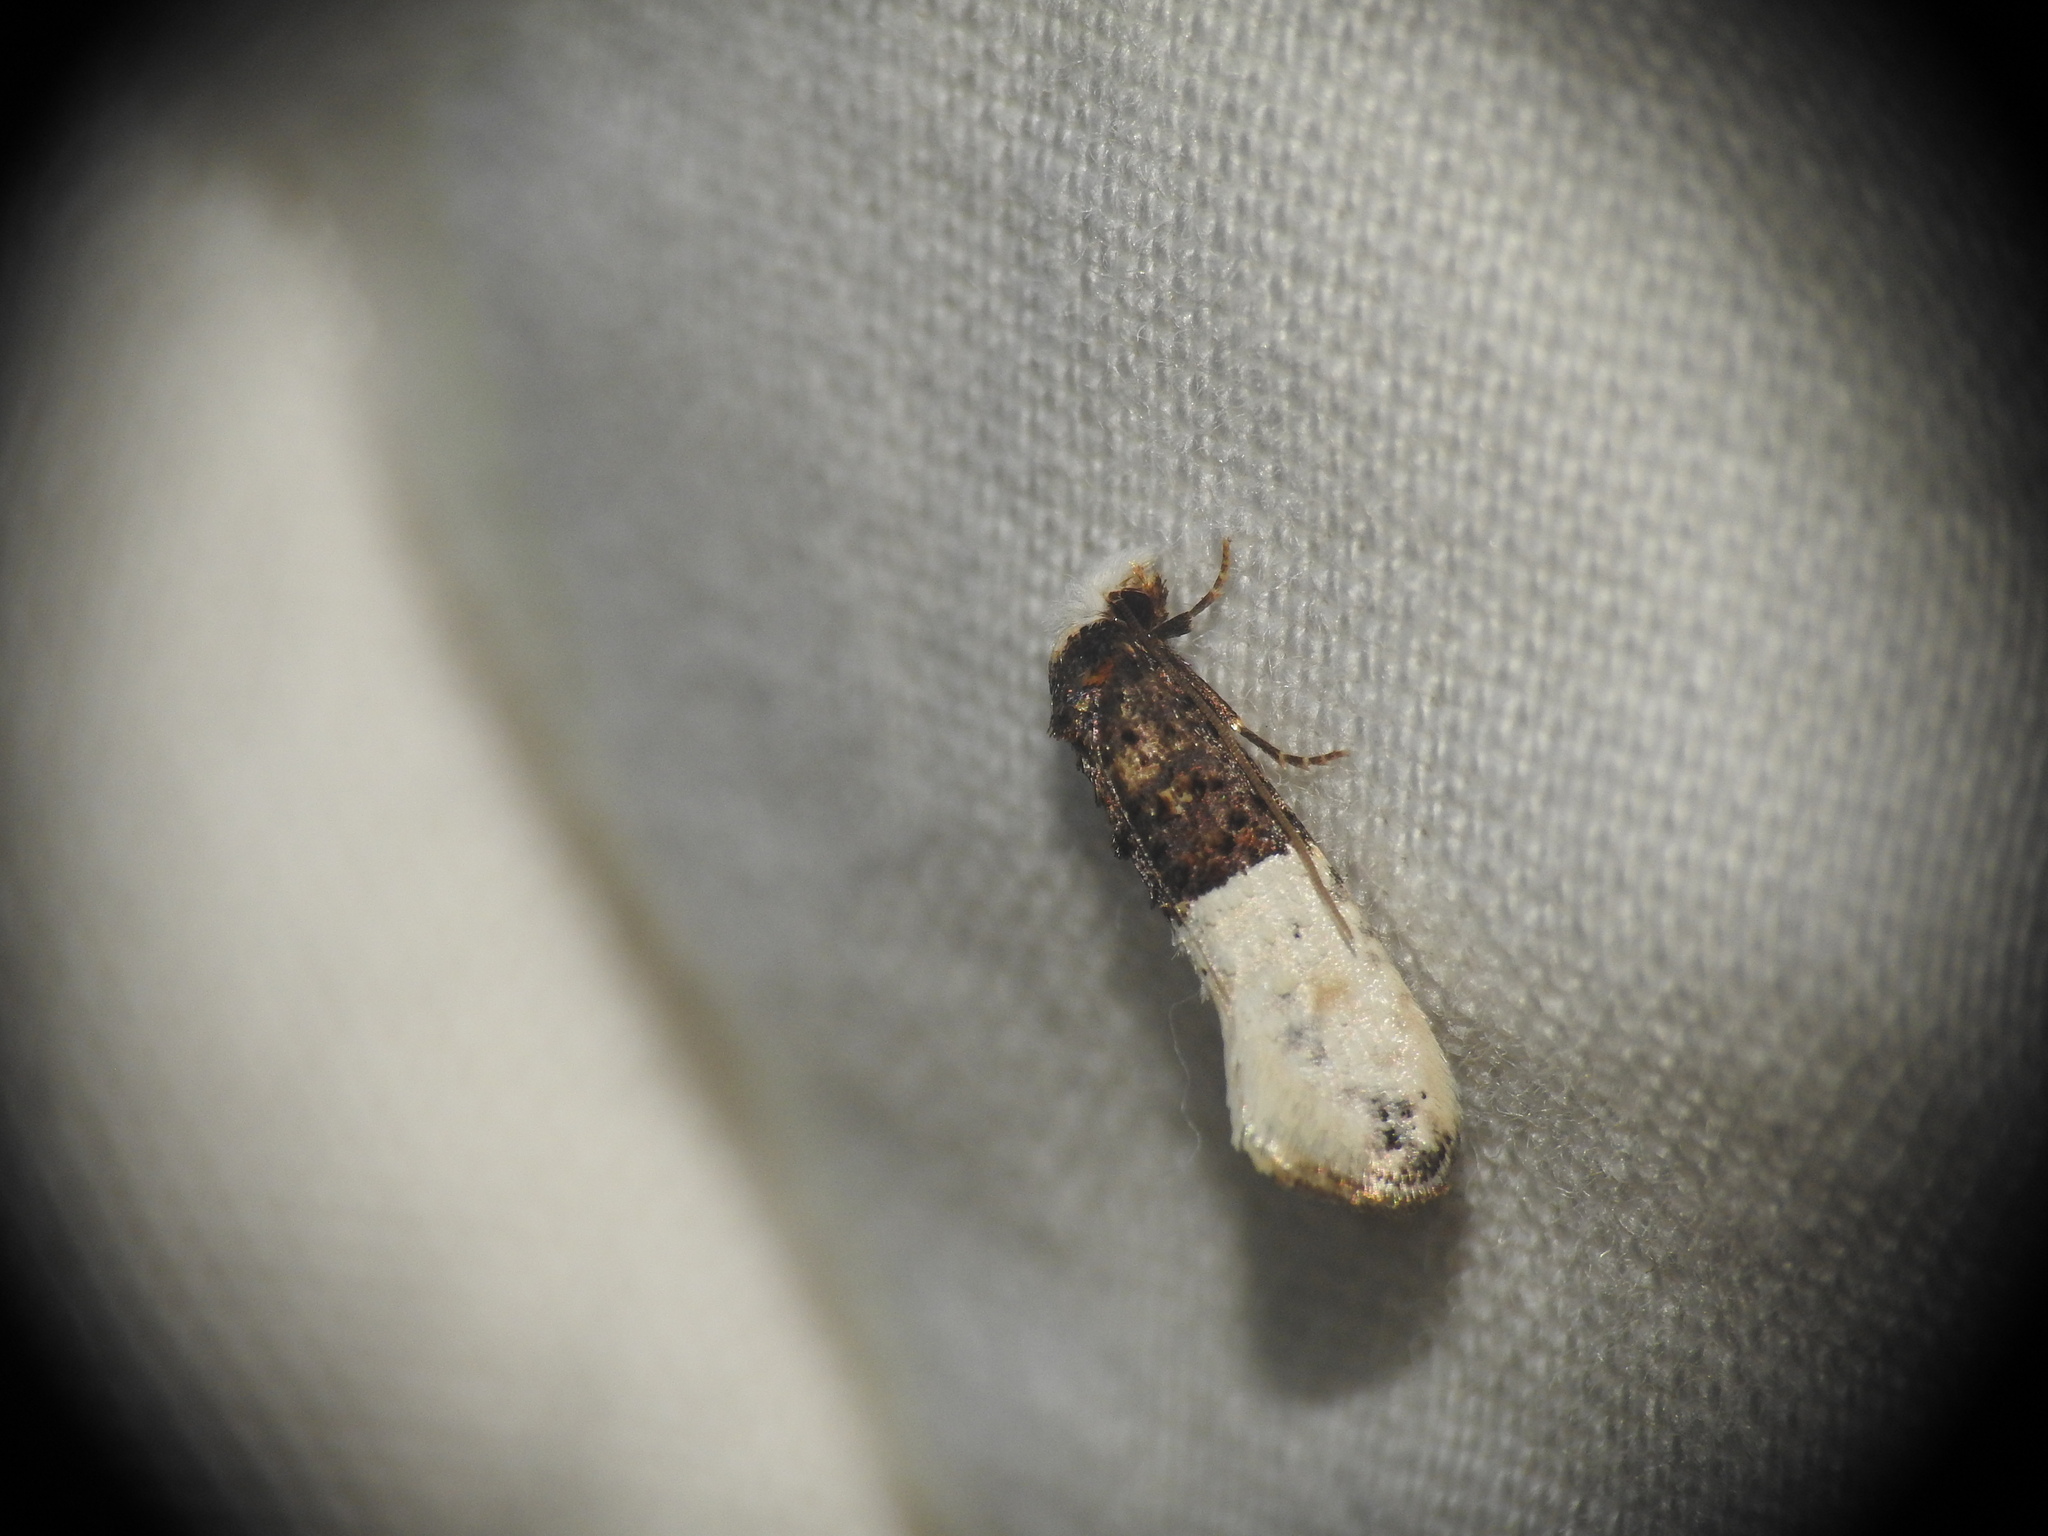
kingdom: Animalia
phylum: Arthropoda
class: Insecta
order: Lepidoptera
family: Tineidae
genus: Trichophaga
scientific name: Trichophaga bipartitella
